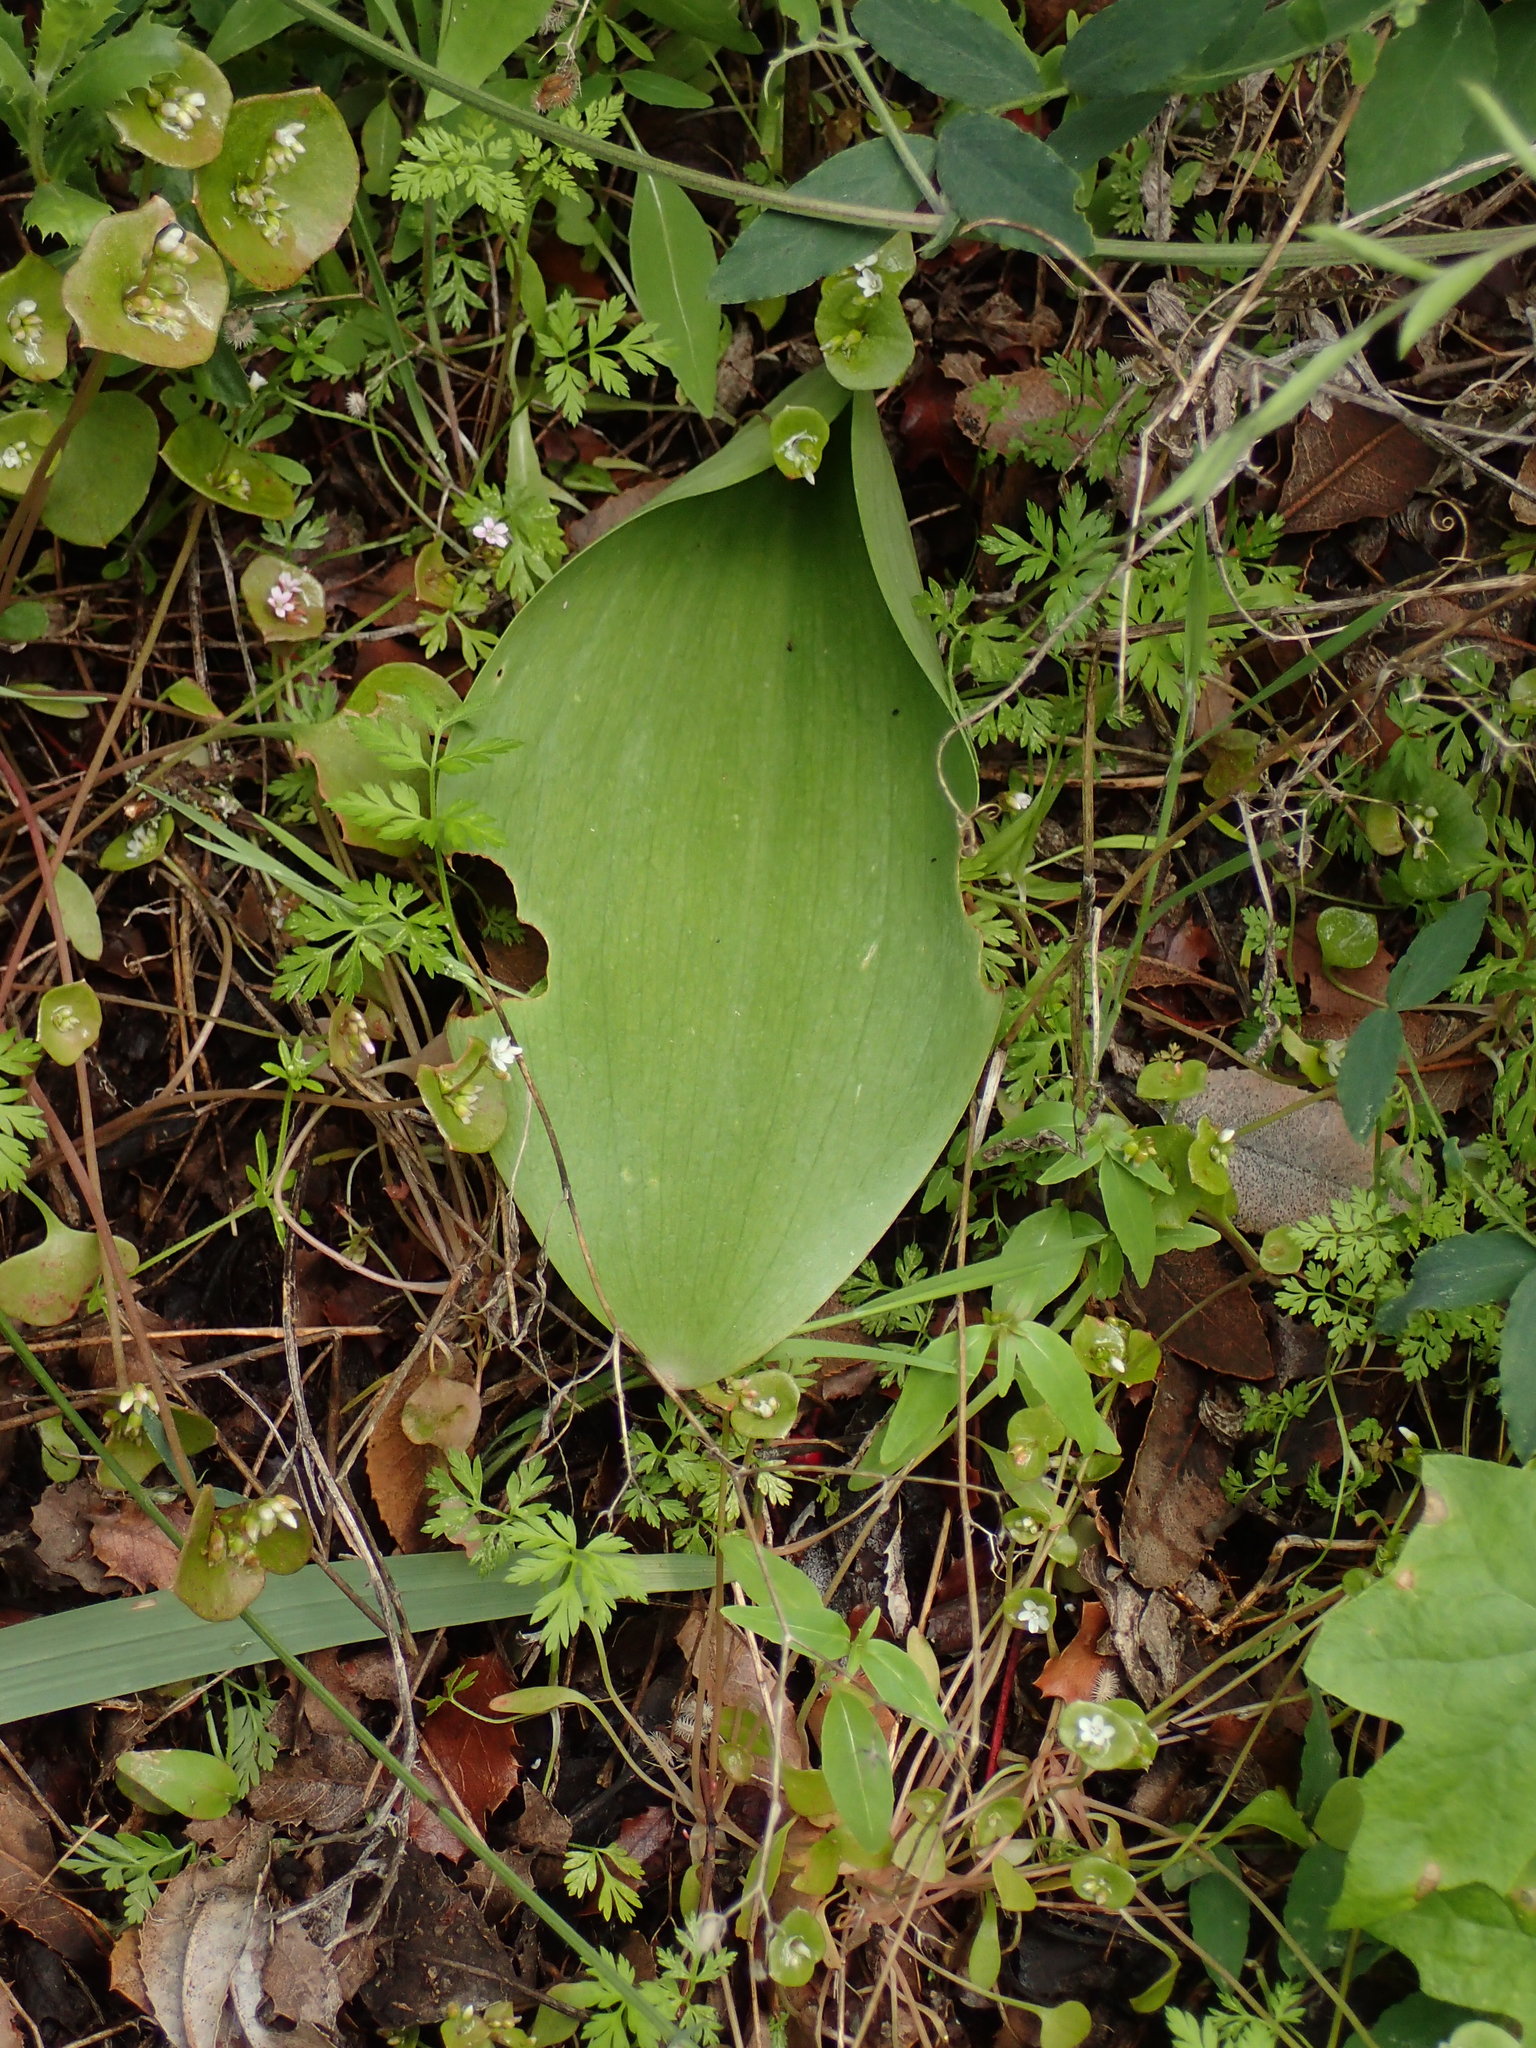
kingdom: Plantae
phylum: Tracheophyta
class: Liliopsida
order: Liliales
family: Liliaceae
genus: Fritillaria
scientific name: Fritillaria ojaiensis
